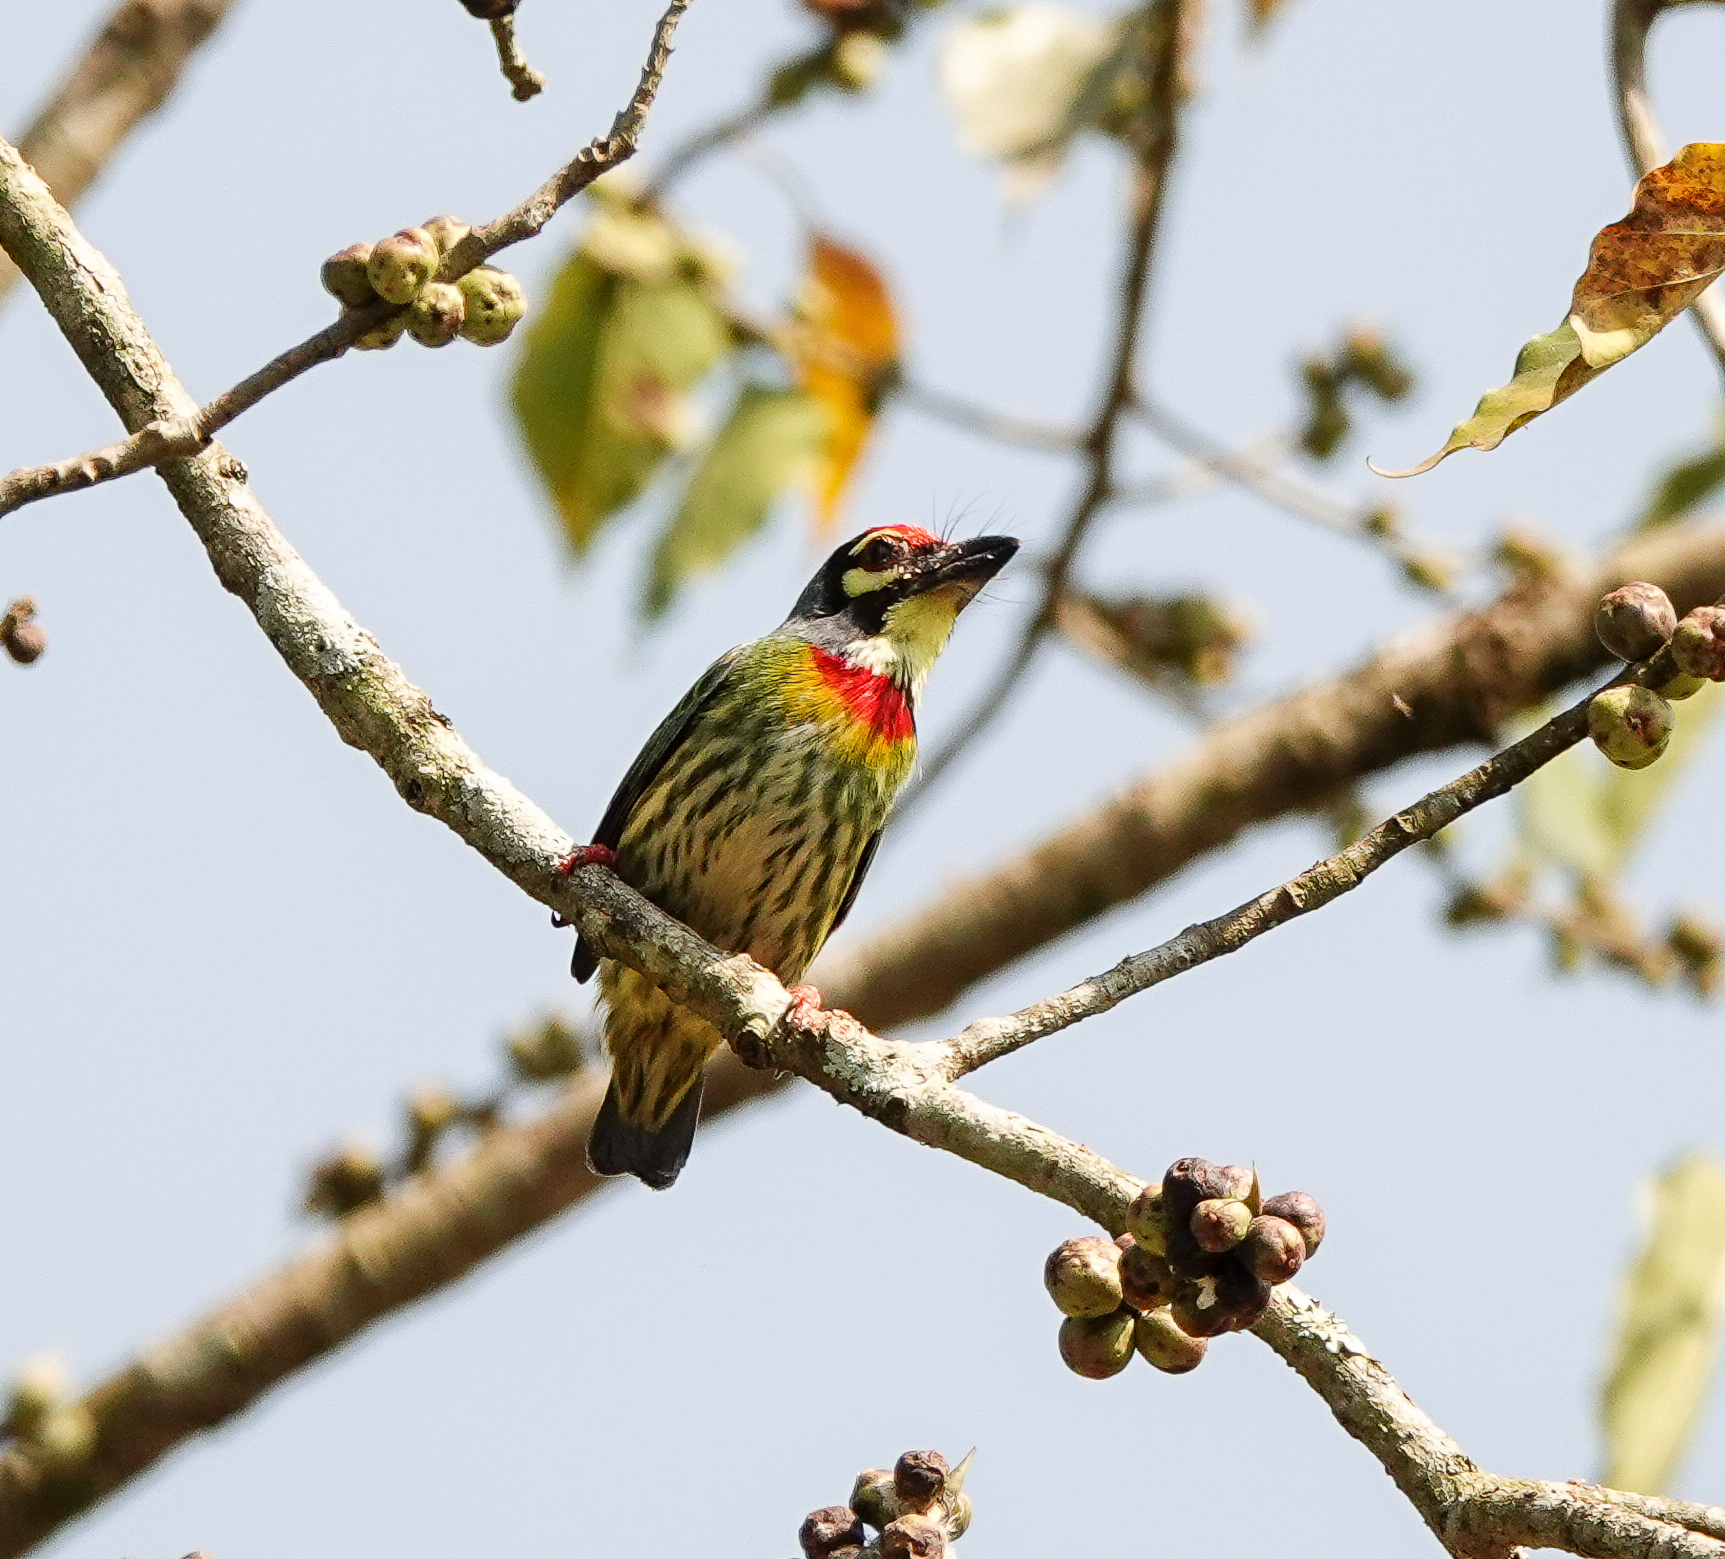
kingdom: Animalia
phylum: Chordata
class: Aves
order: Piciformes
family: Megalaimidae
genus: Psilopogon
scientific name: Psilopogon haemacephalus
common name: Coppersmith barbet
